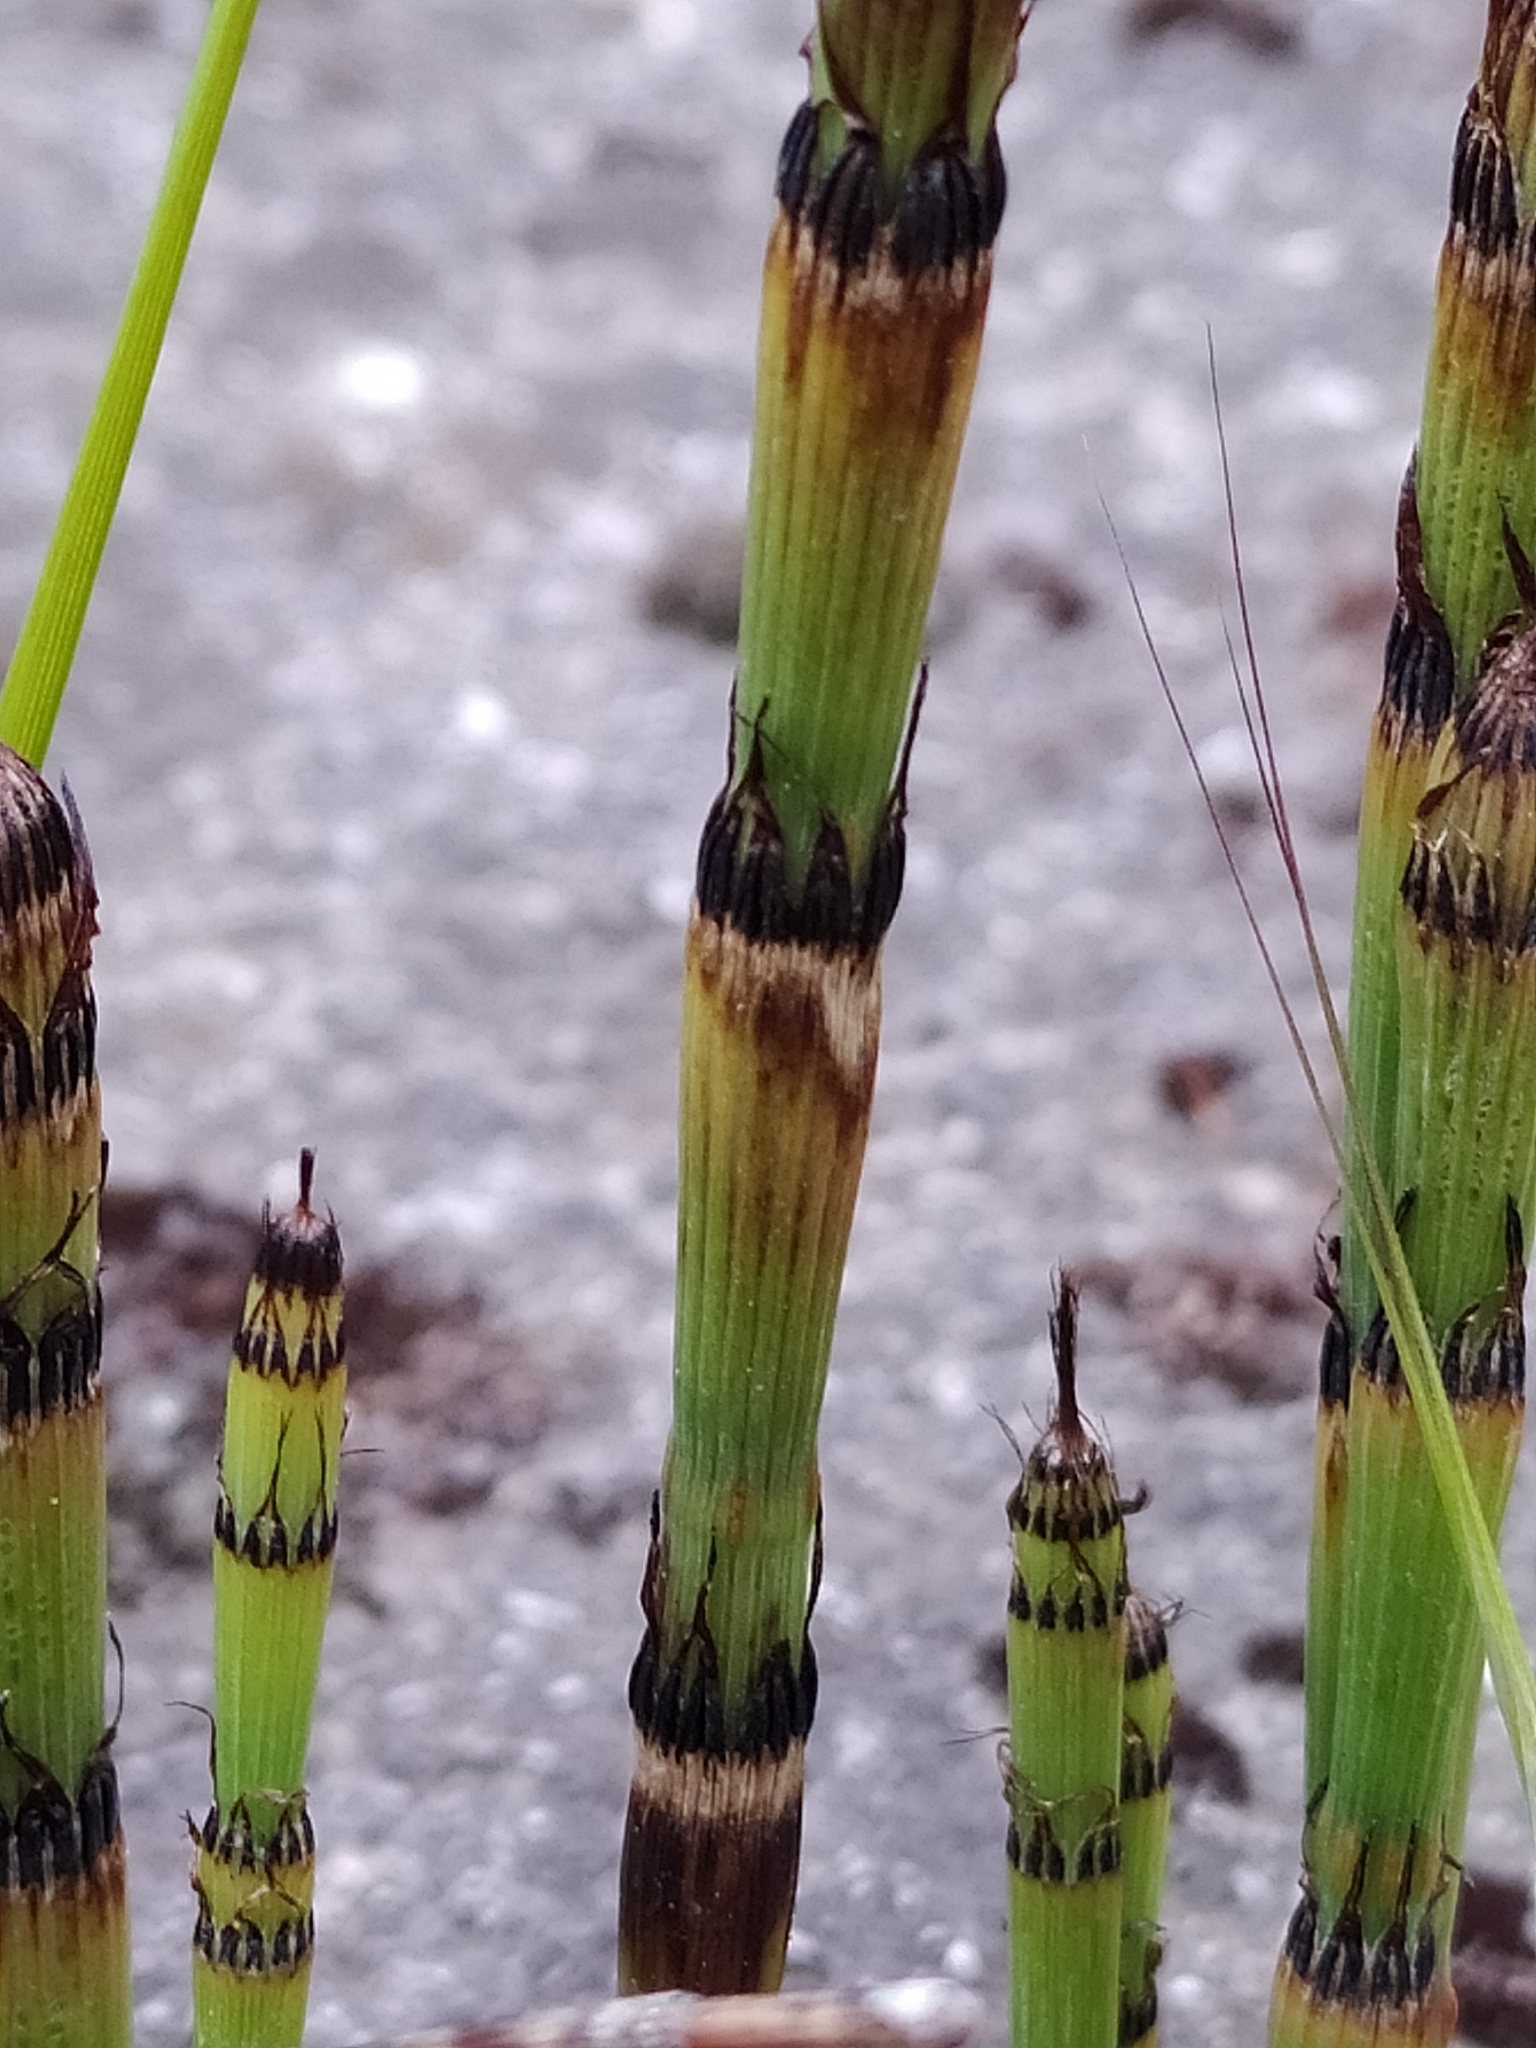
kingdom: Plantae
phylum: Tracheophyta
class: Polypodiopsida
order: Equisetales
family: Equisetaceae
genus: Equisetum
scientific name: Equisetum ramosissimum
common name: Branched horsetail
